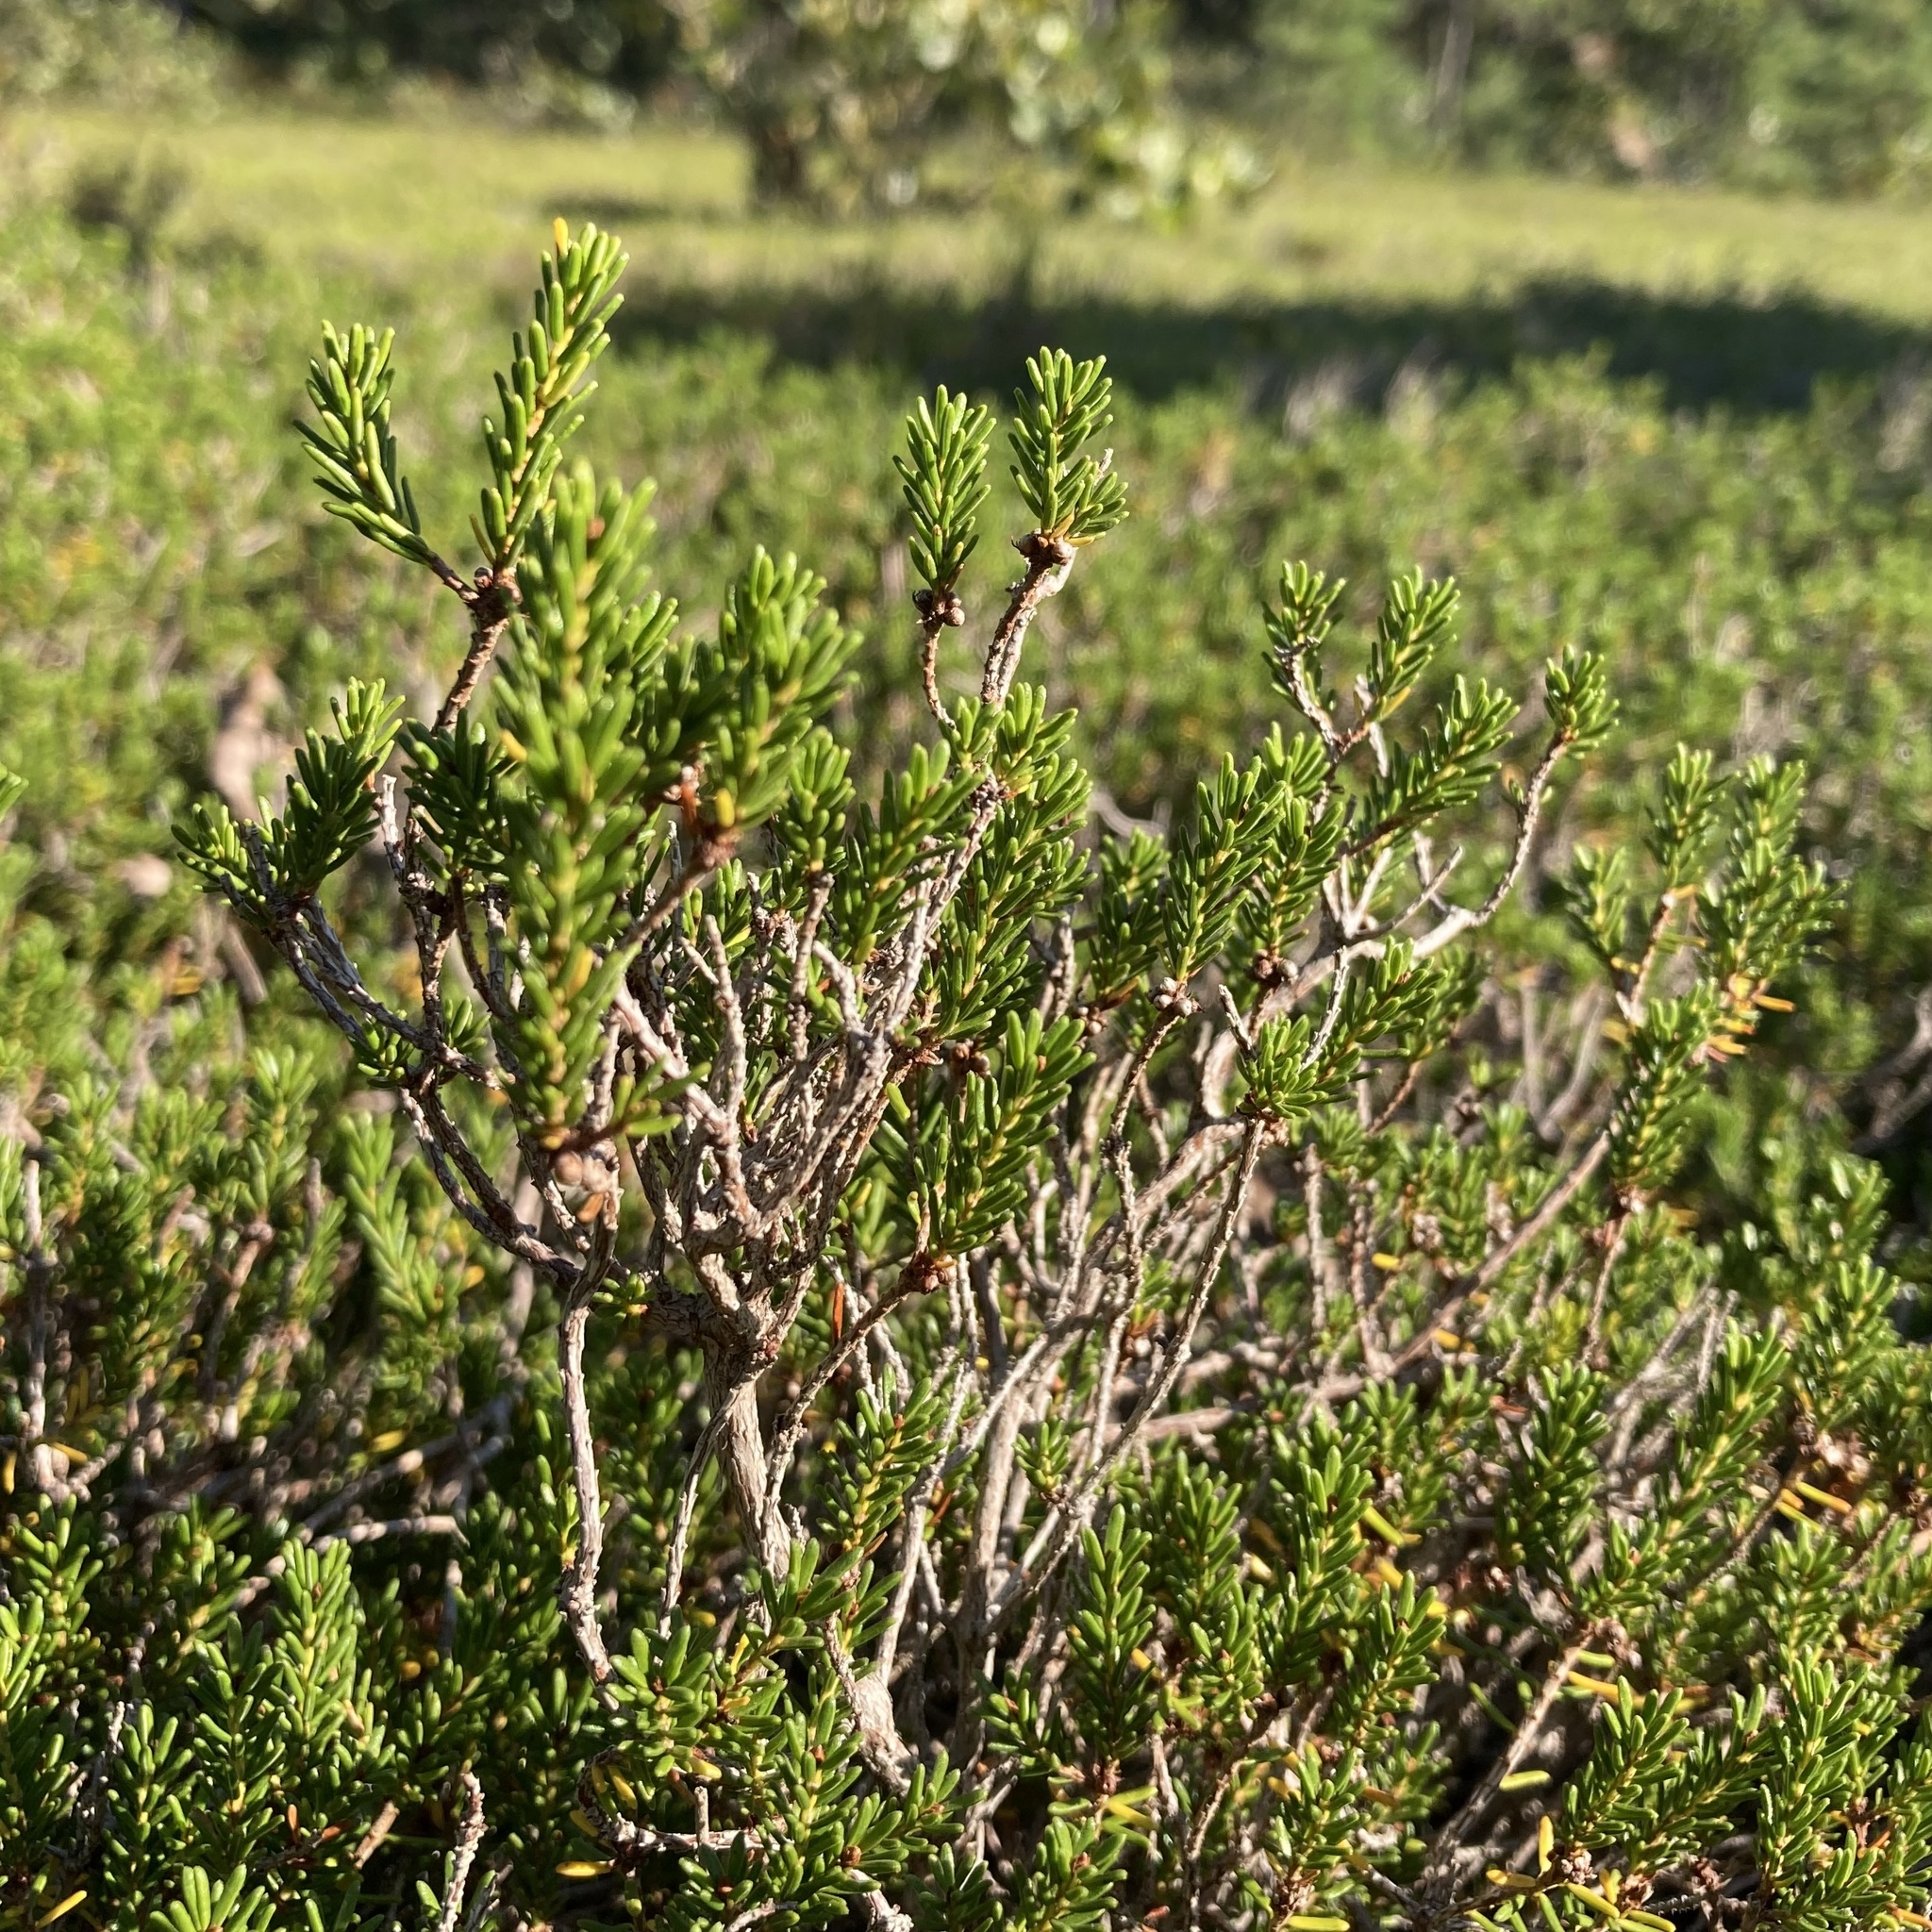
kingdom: Plantae
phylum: Tracheophyta
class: Magnoliopsida
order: Ericales
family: Ericaceae
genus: Corema
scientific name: Corema conradii
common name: Broom-crowberry
